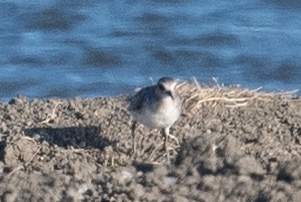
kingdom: Animalia
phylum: Chordata
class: Aves
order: Charadriiformes
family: Charadriidae
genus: Pluvialis
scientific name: Pluvialis squatarola
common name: Grey plover
